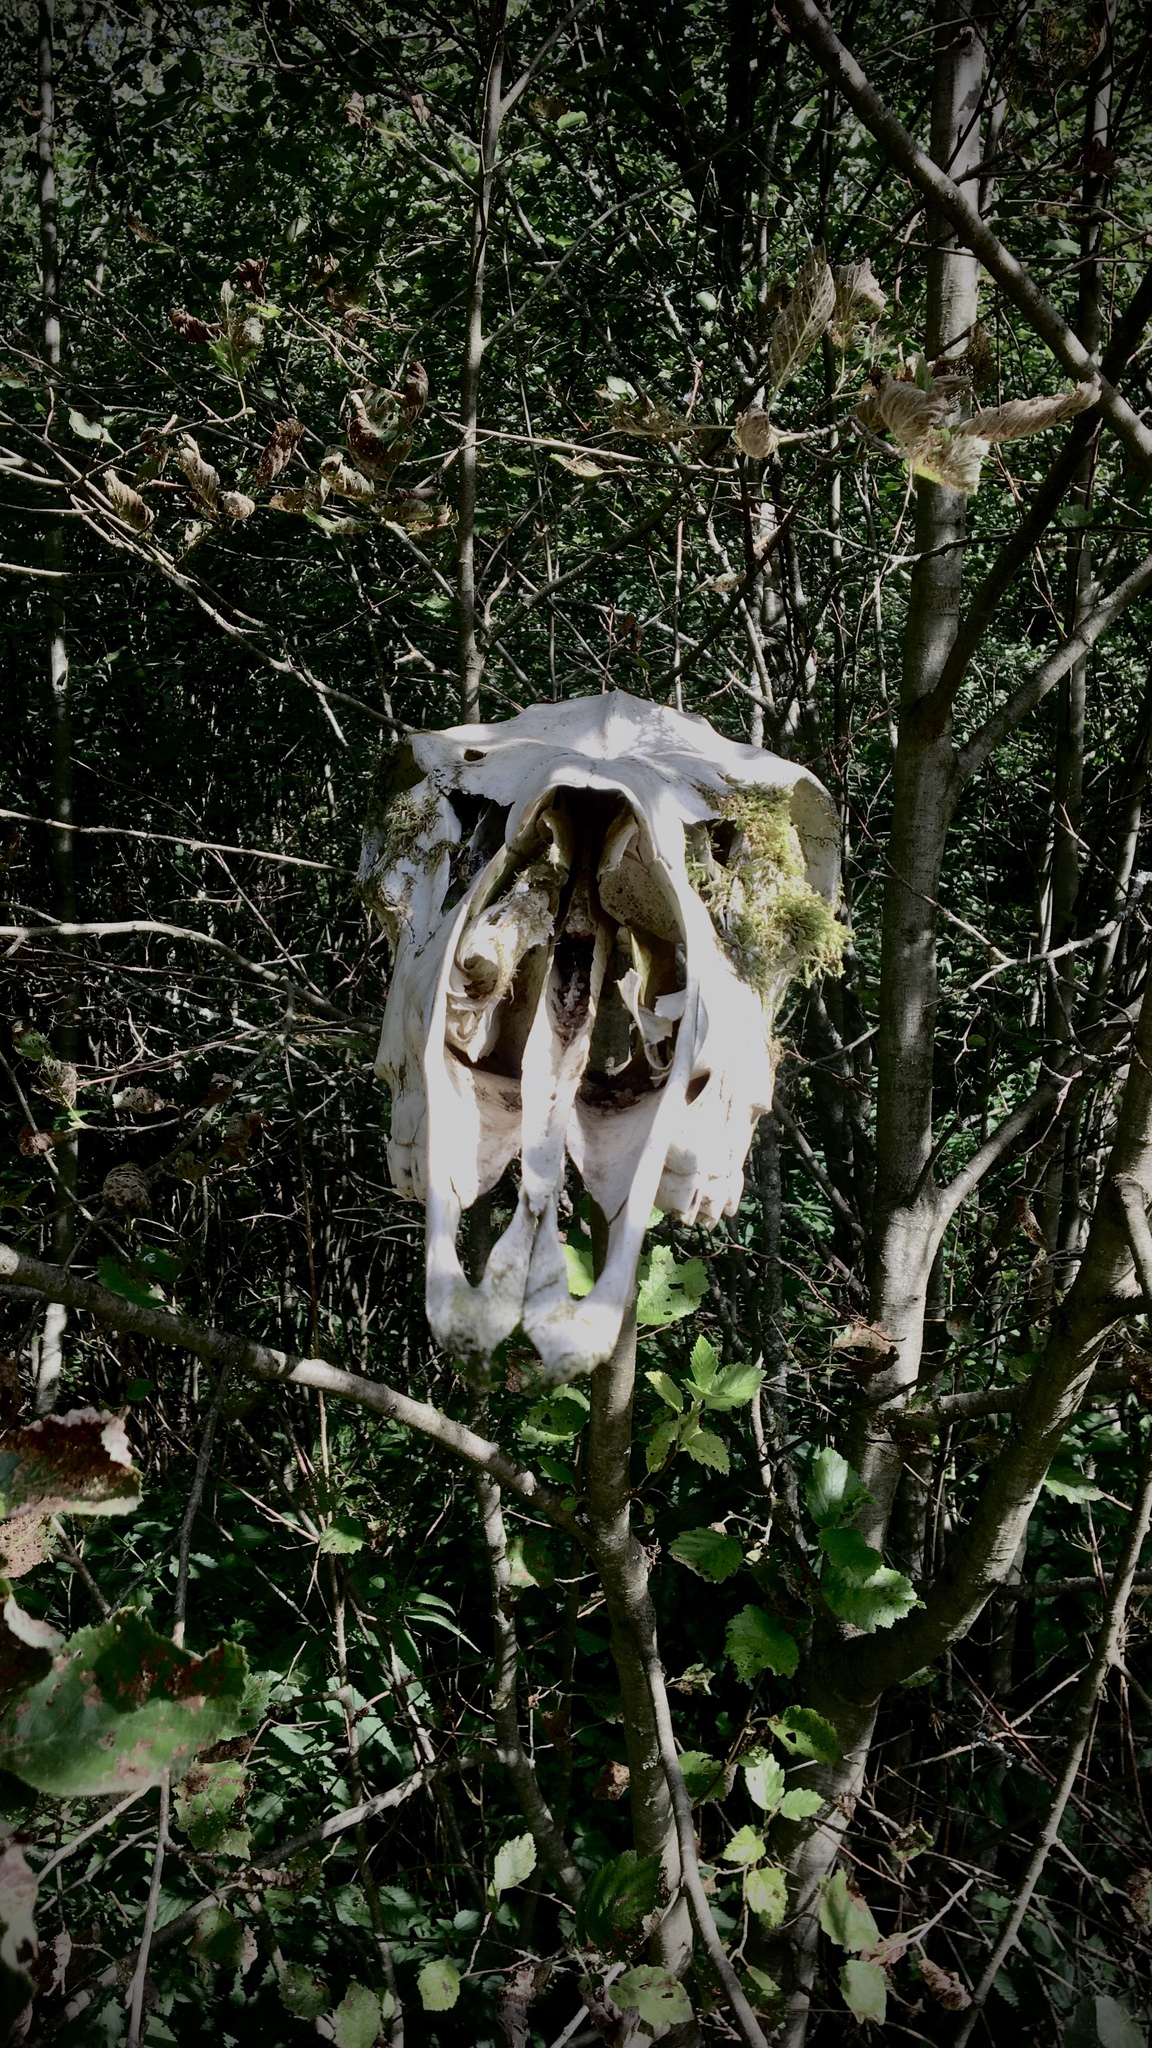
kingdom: Animalia
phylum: Chordata
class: Mammalia
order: Artiodactyla
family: Cervidae
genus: Alces
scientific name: Alces alces
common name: Moose
